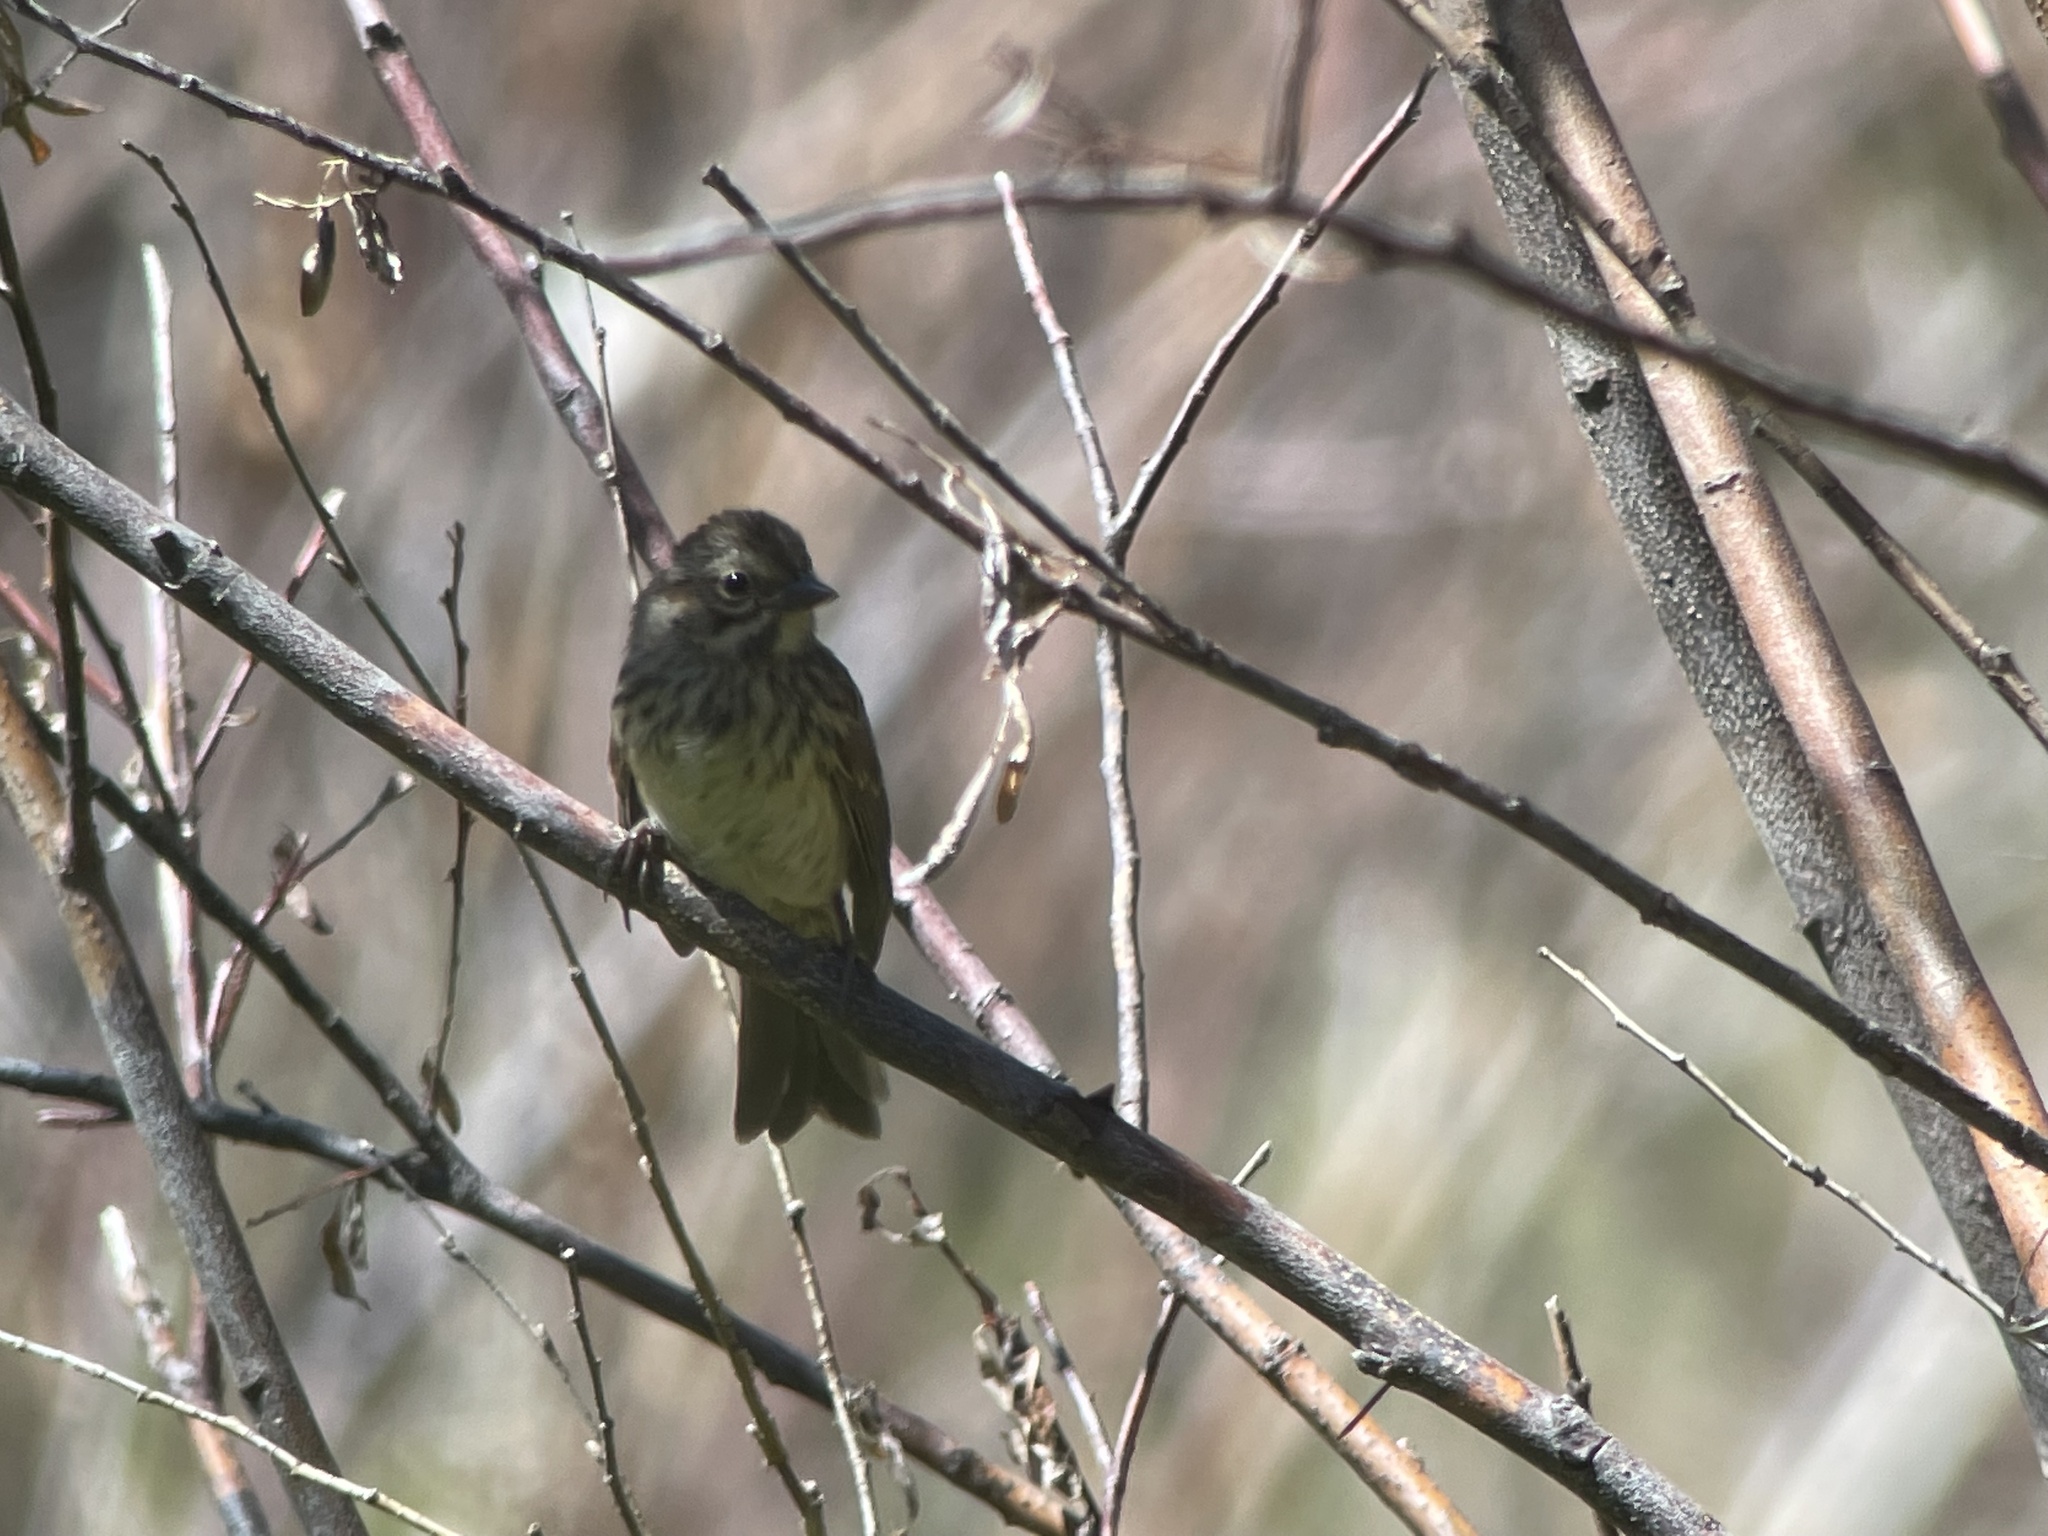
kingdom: Animalia
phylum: Chordata
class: Aves
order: Passeriformes
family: Passerellidae
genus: Melospiza
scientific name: Melospiza melodia
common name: Song sparrow
